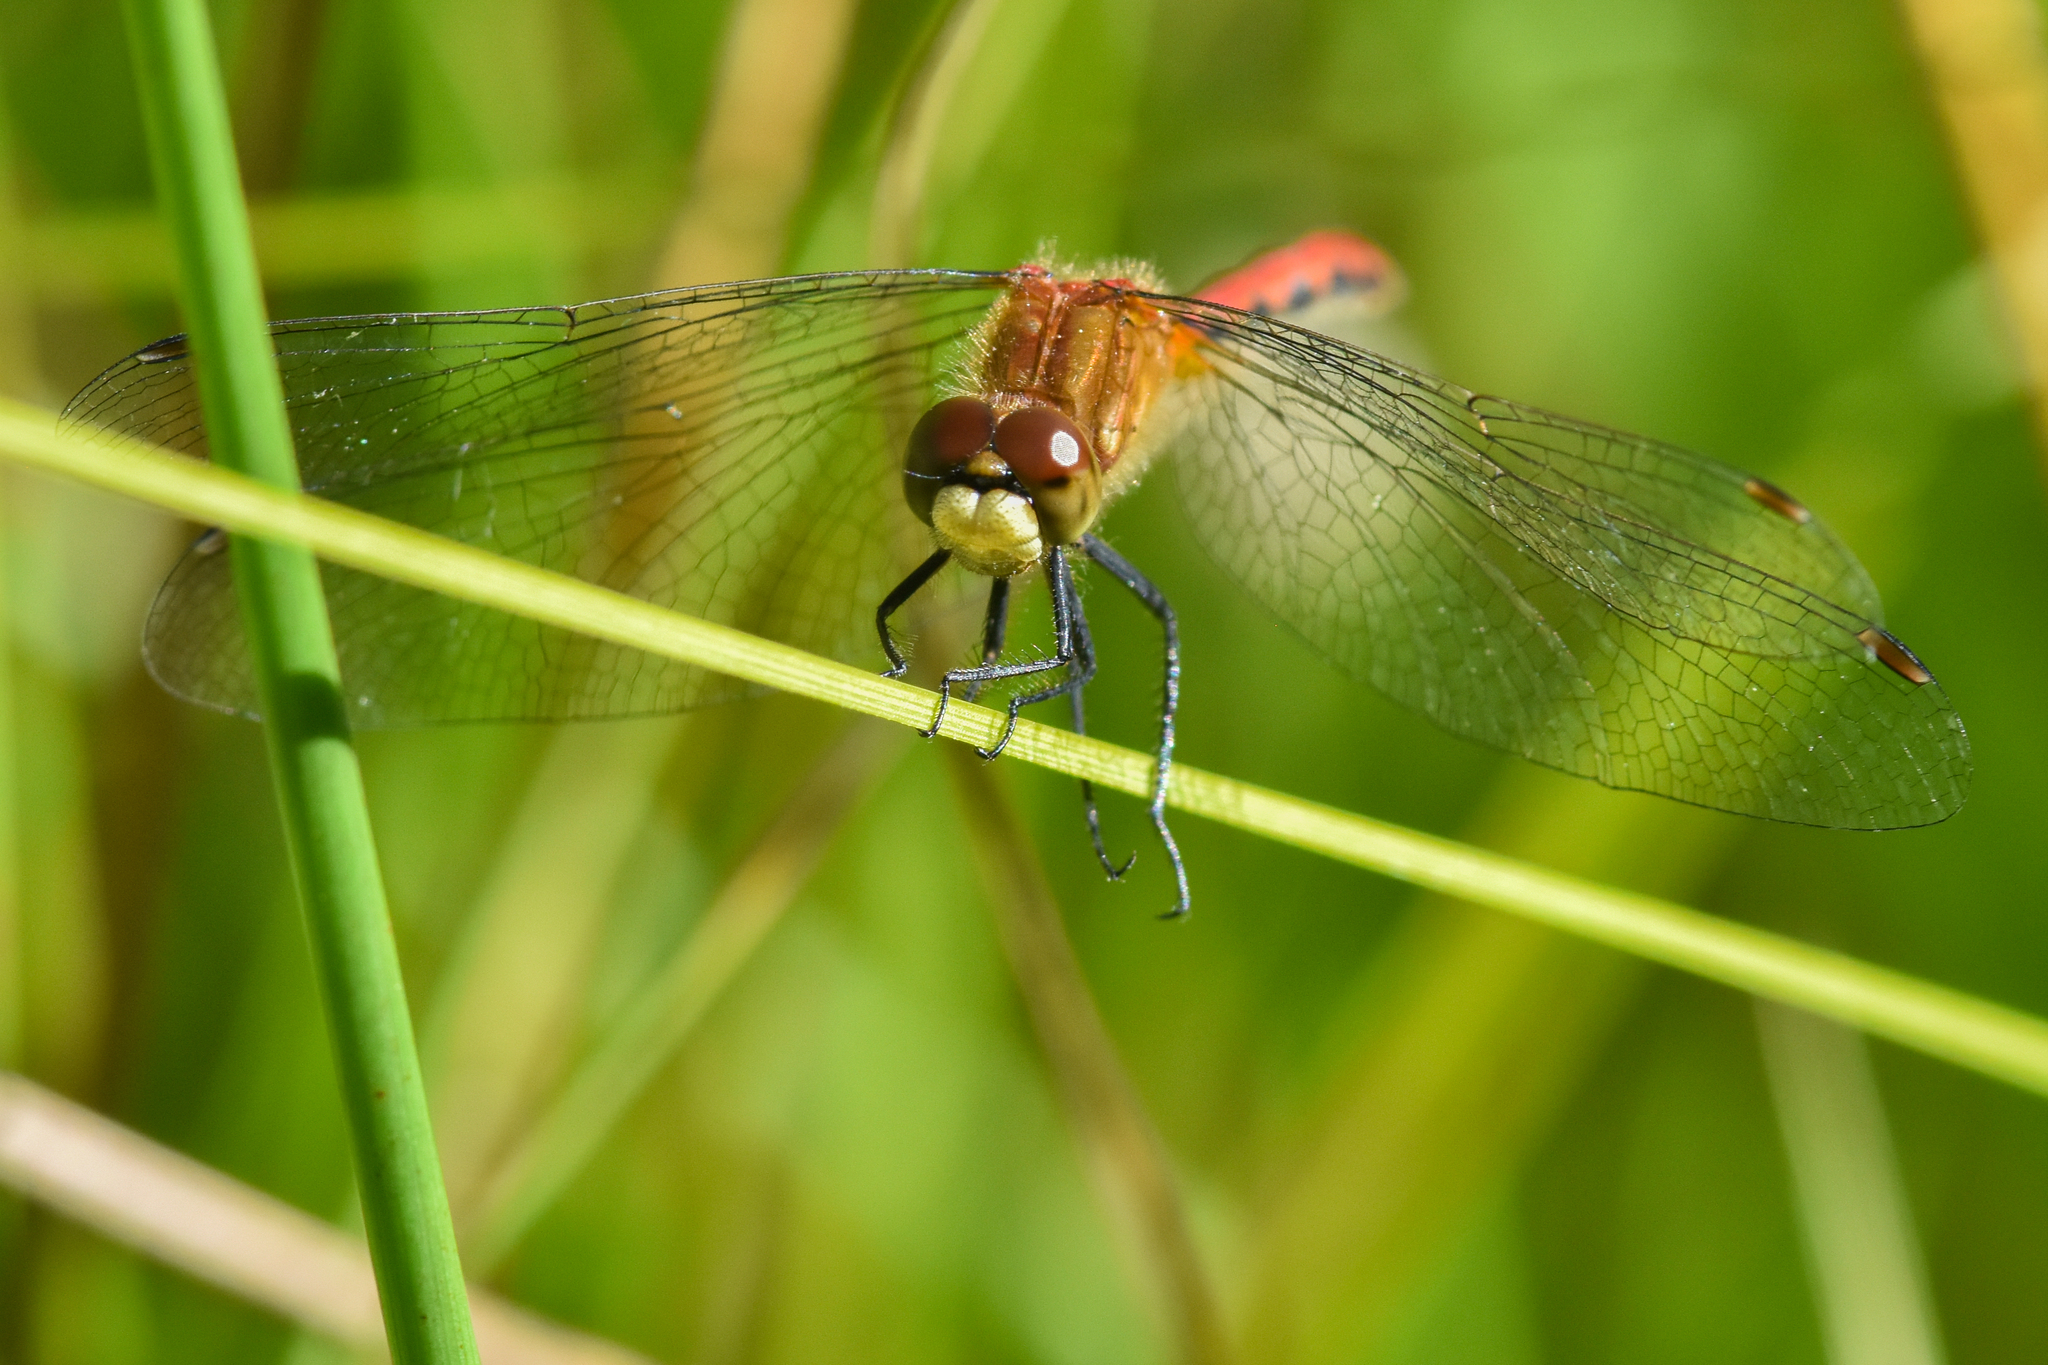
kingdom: Animalia
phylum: Arthropoda
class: Insecta
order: Odonata
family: Libellulidae
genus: Sympetrum
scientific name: Sympetrum obtrusum
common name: White-faced meadowhawk
